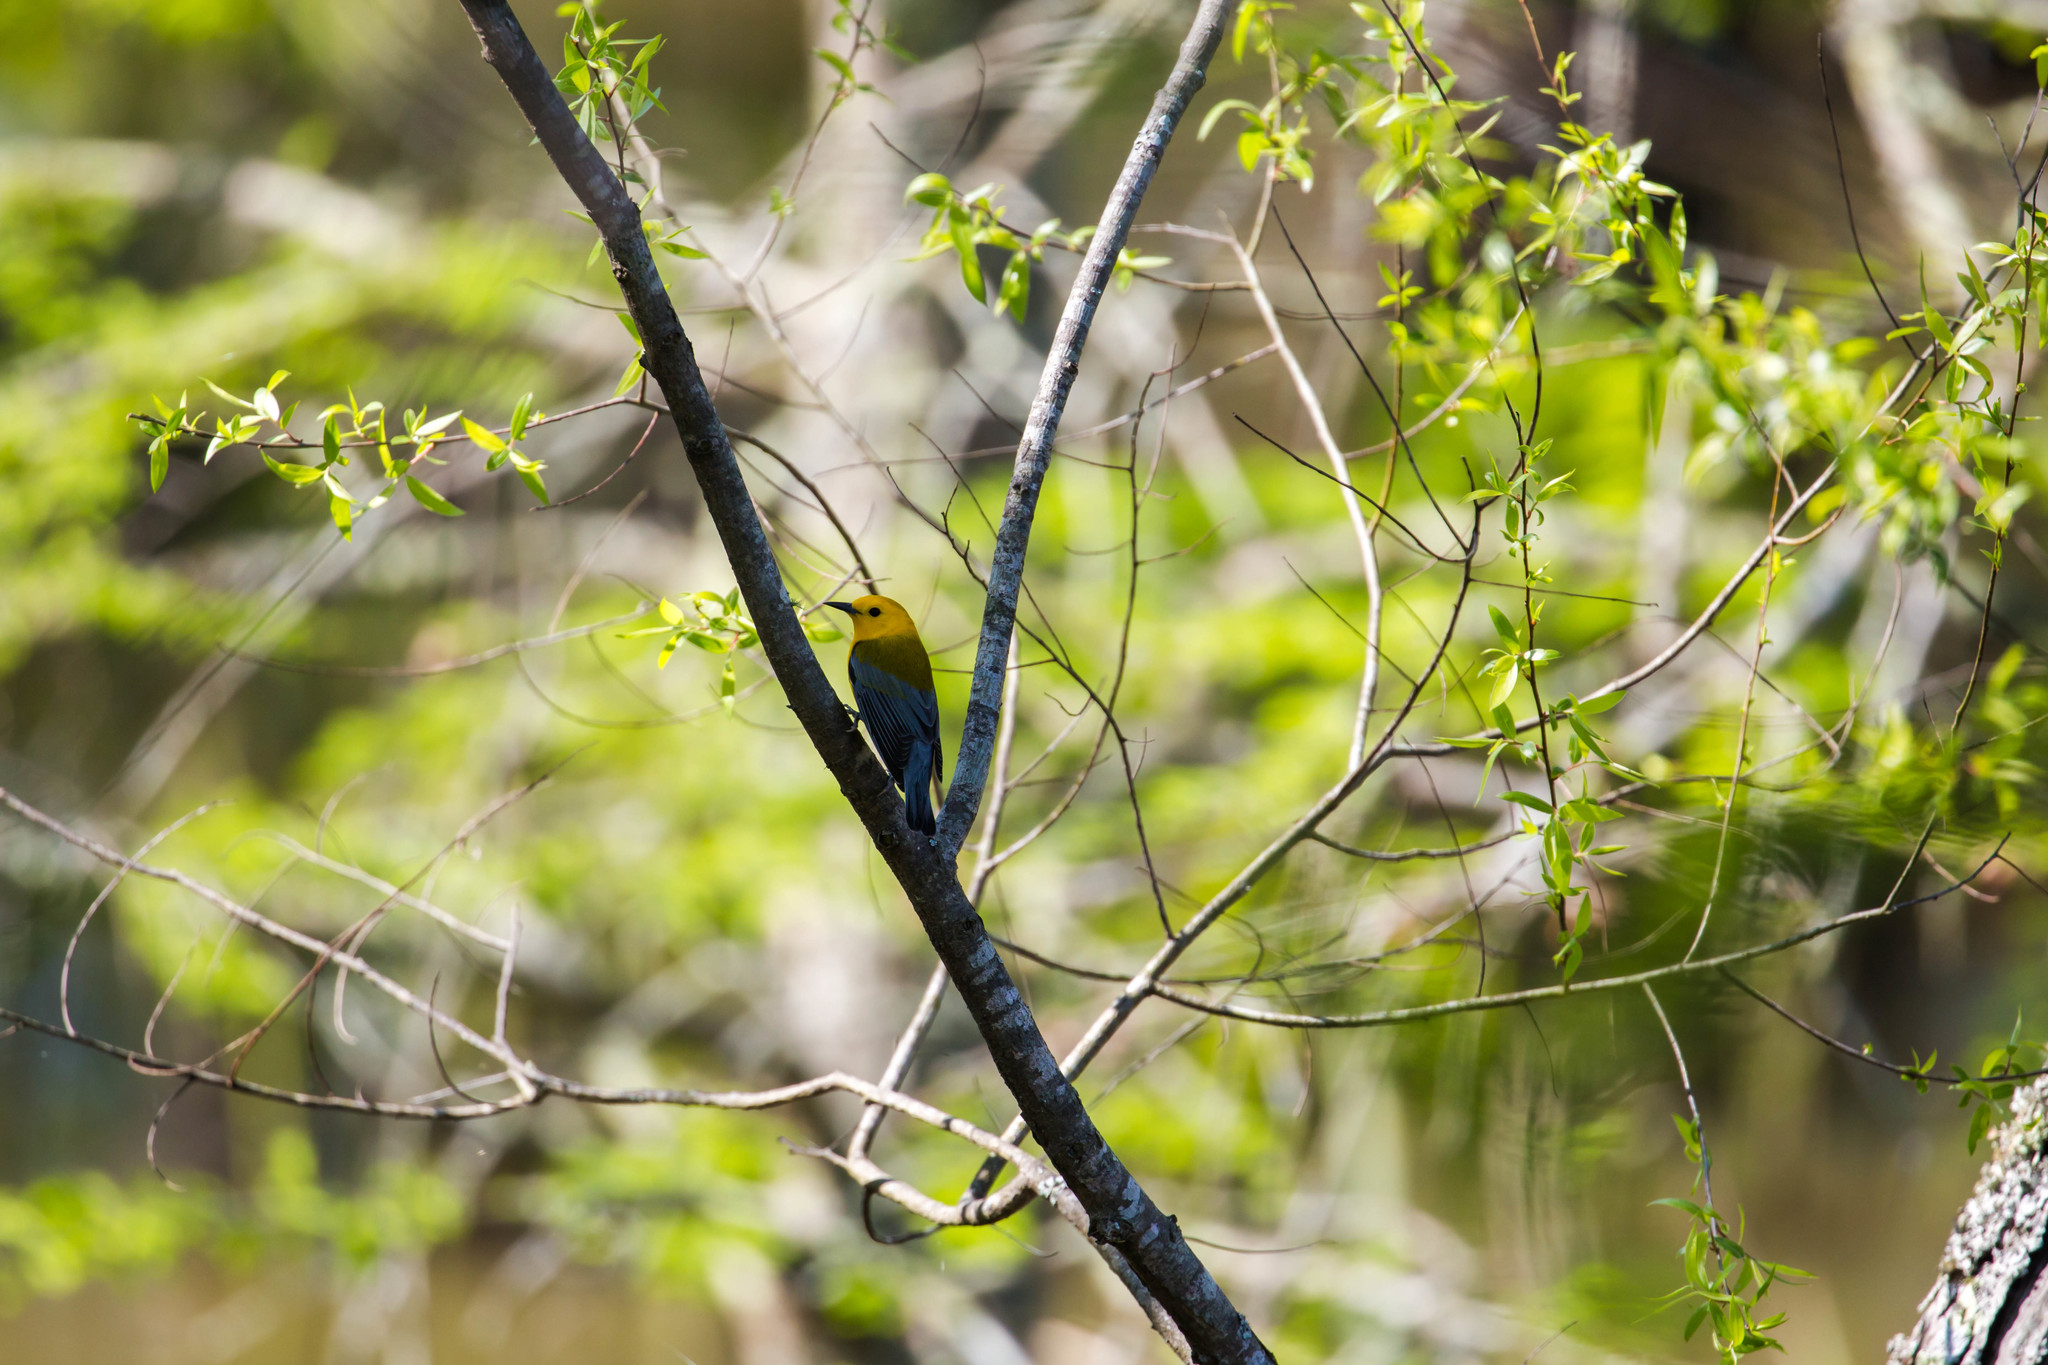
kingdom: Animalia
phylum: Chordata
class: Aves
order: Passeriformes
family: Parulidae
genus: Protonotaria
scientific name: Protonotaria citrea
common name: Prothonotary warbler
